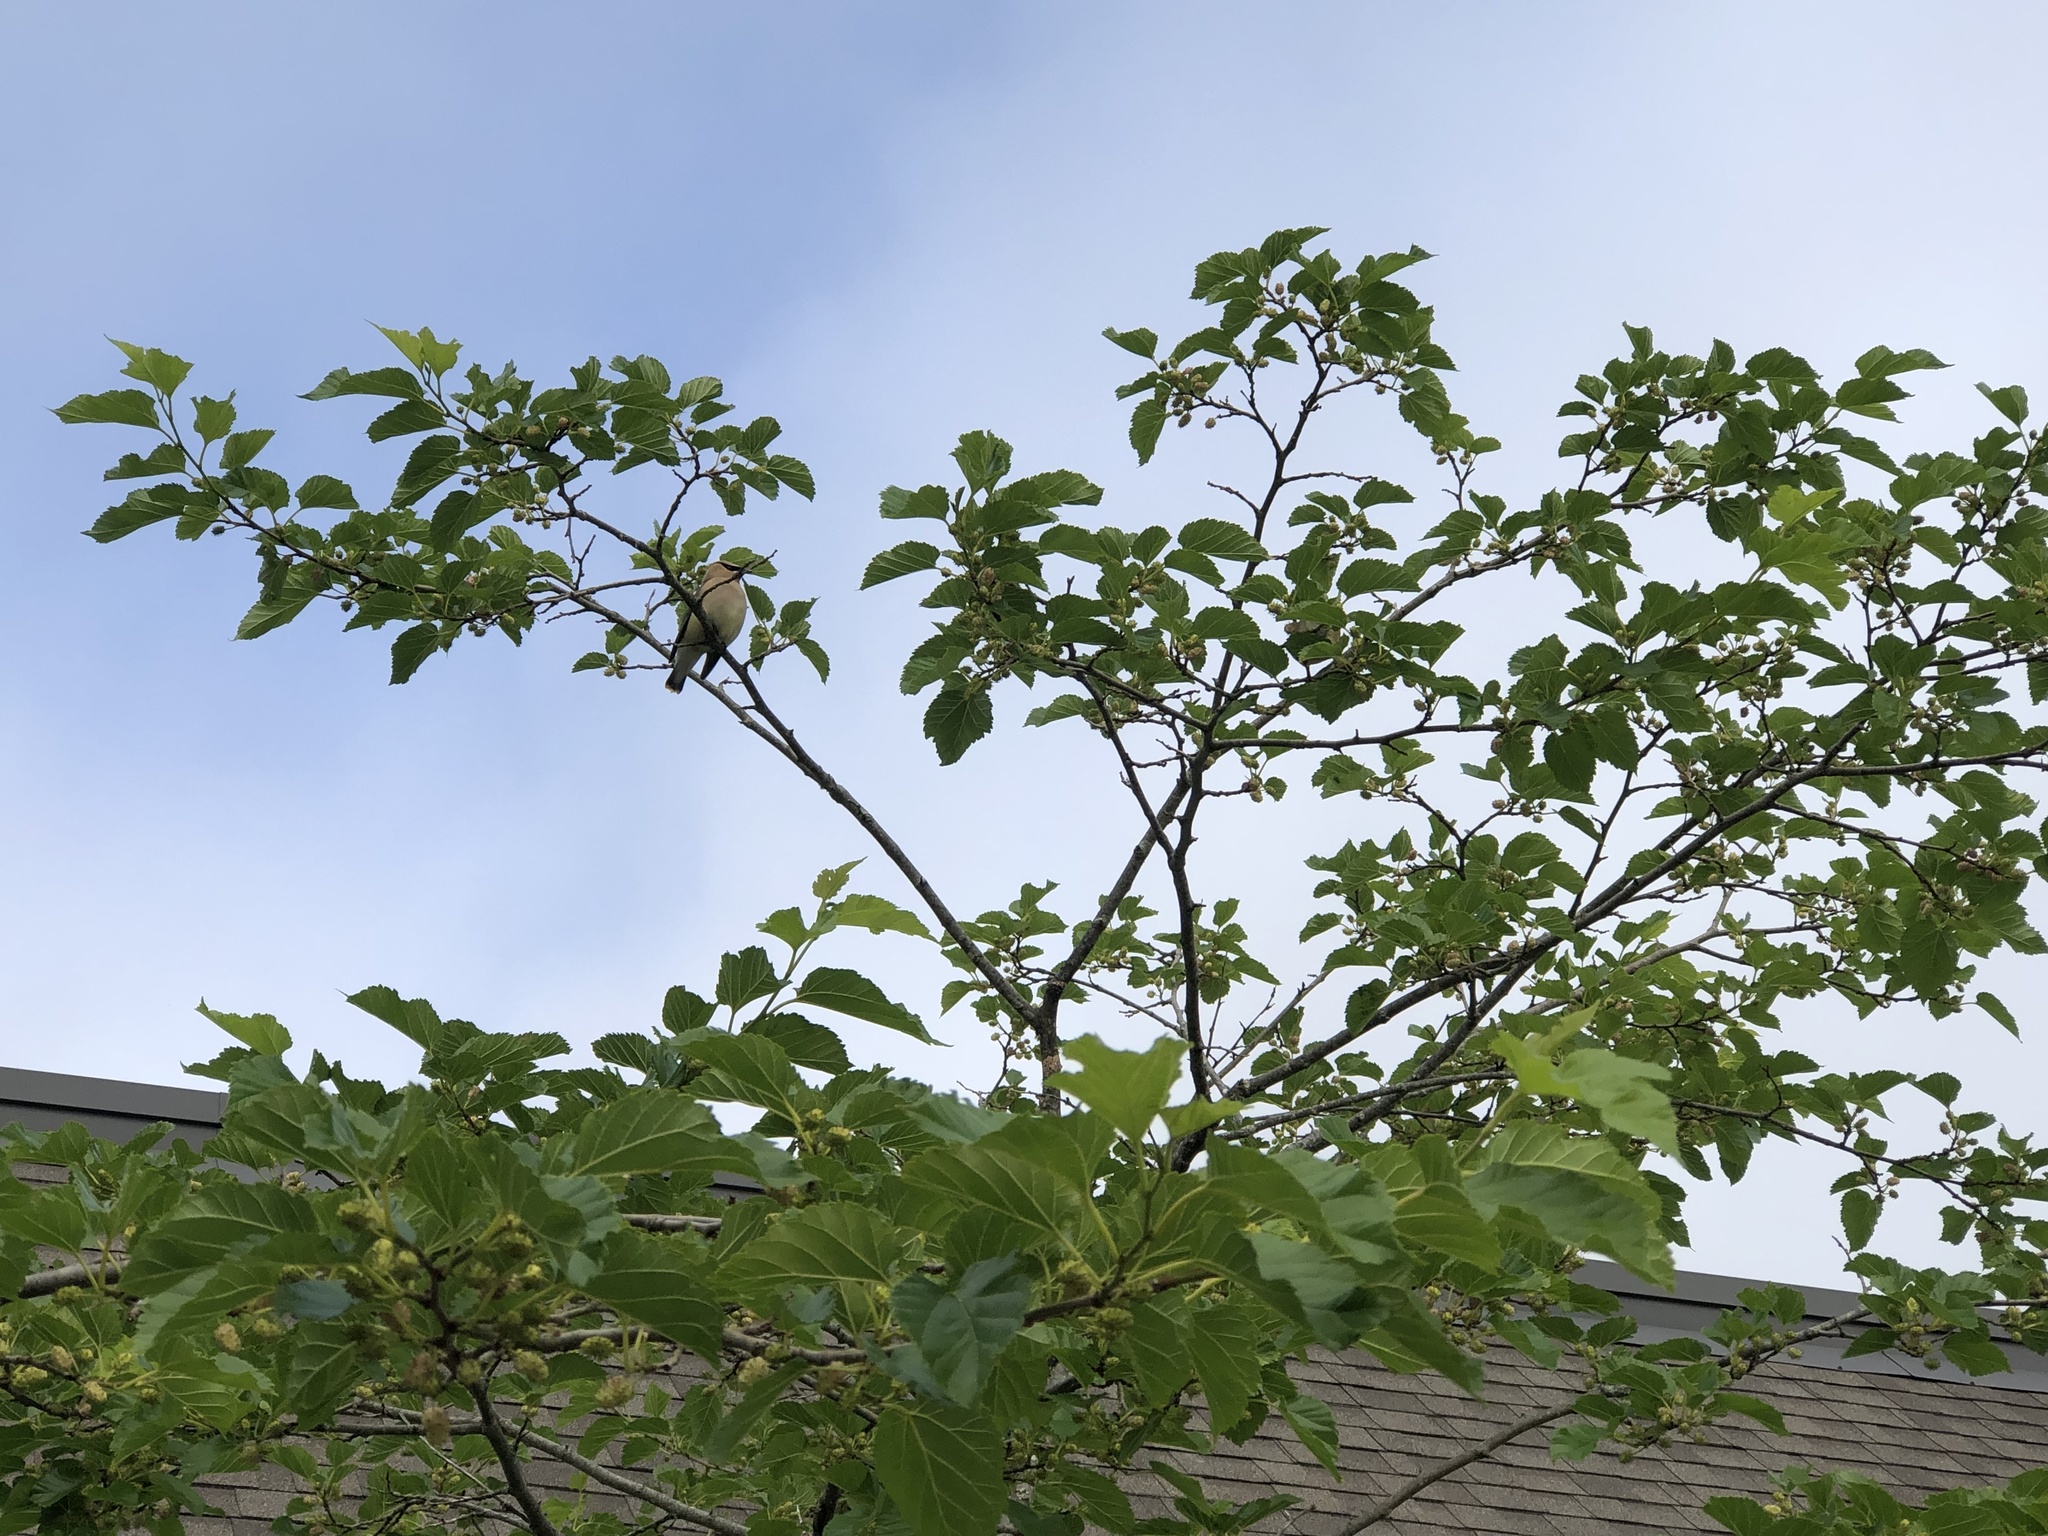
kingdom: Animalia
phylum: Chordata
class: Aves
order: Passeriformes
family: Bombycillidae
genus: Bombycilla
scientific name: Bombycilla cedrorum
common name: Cedar waxwing
